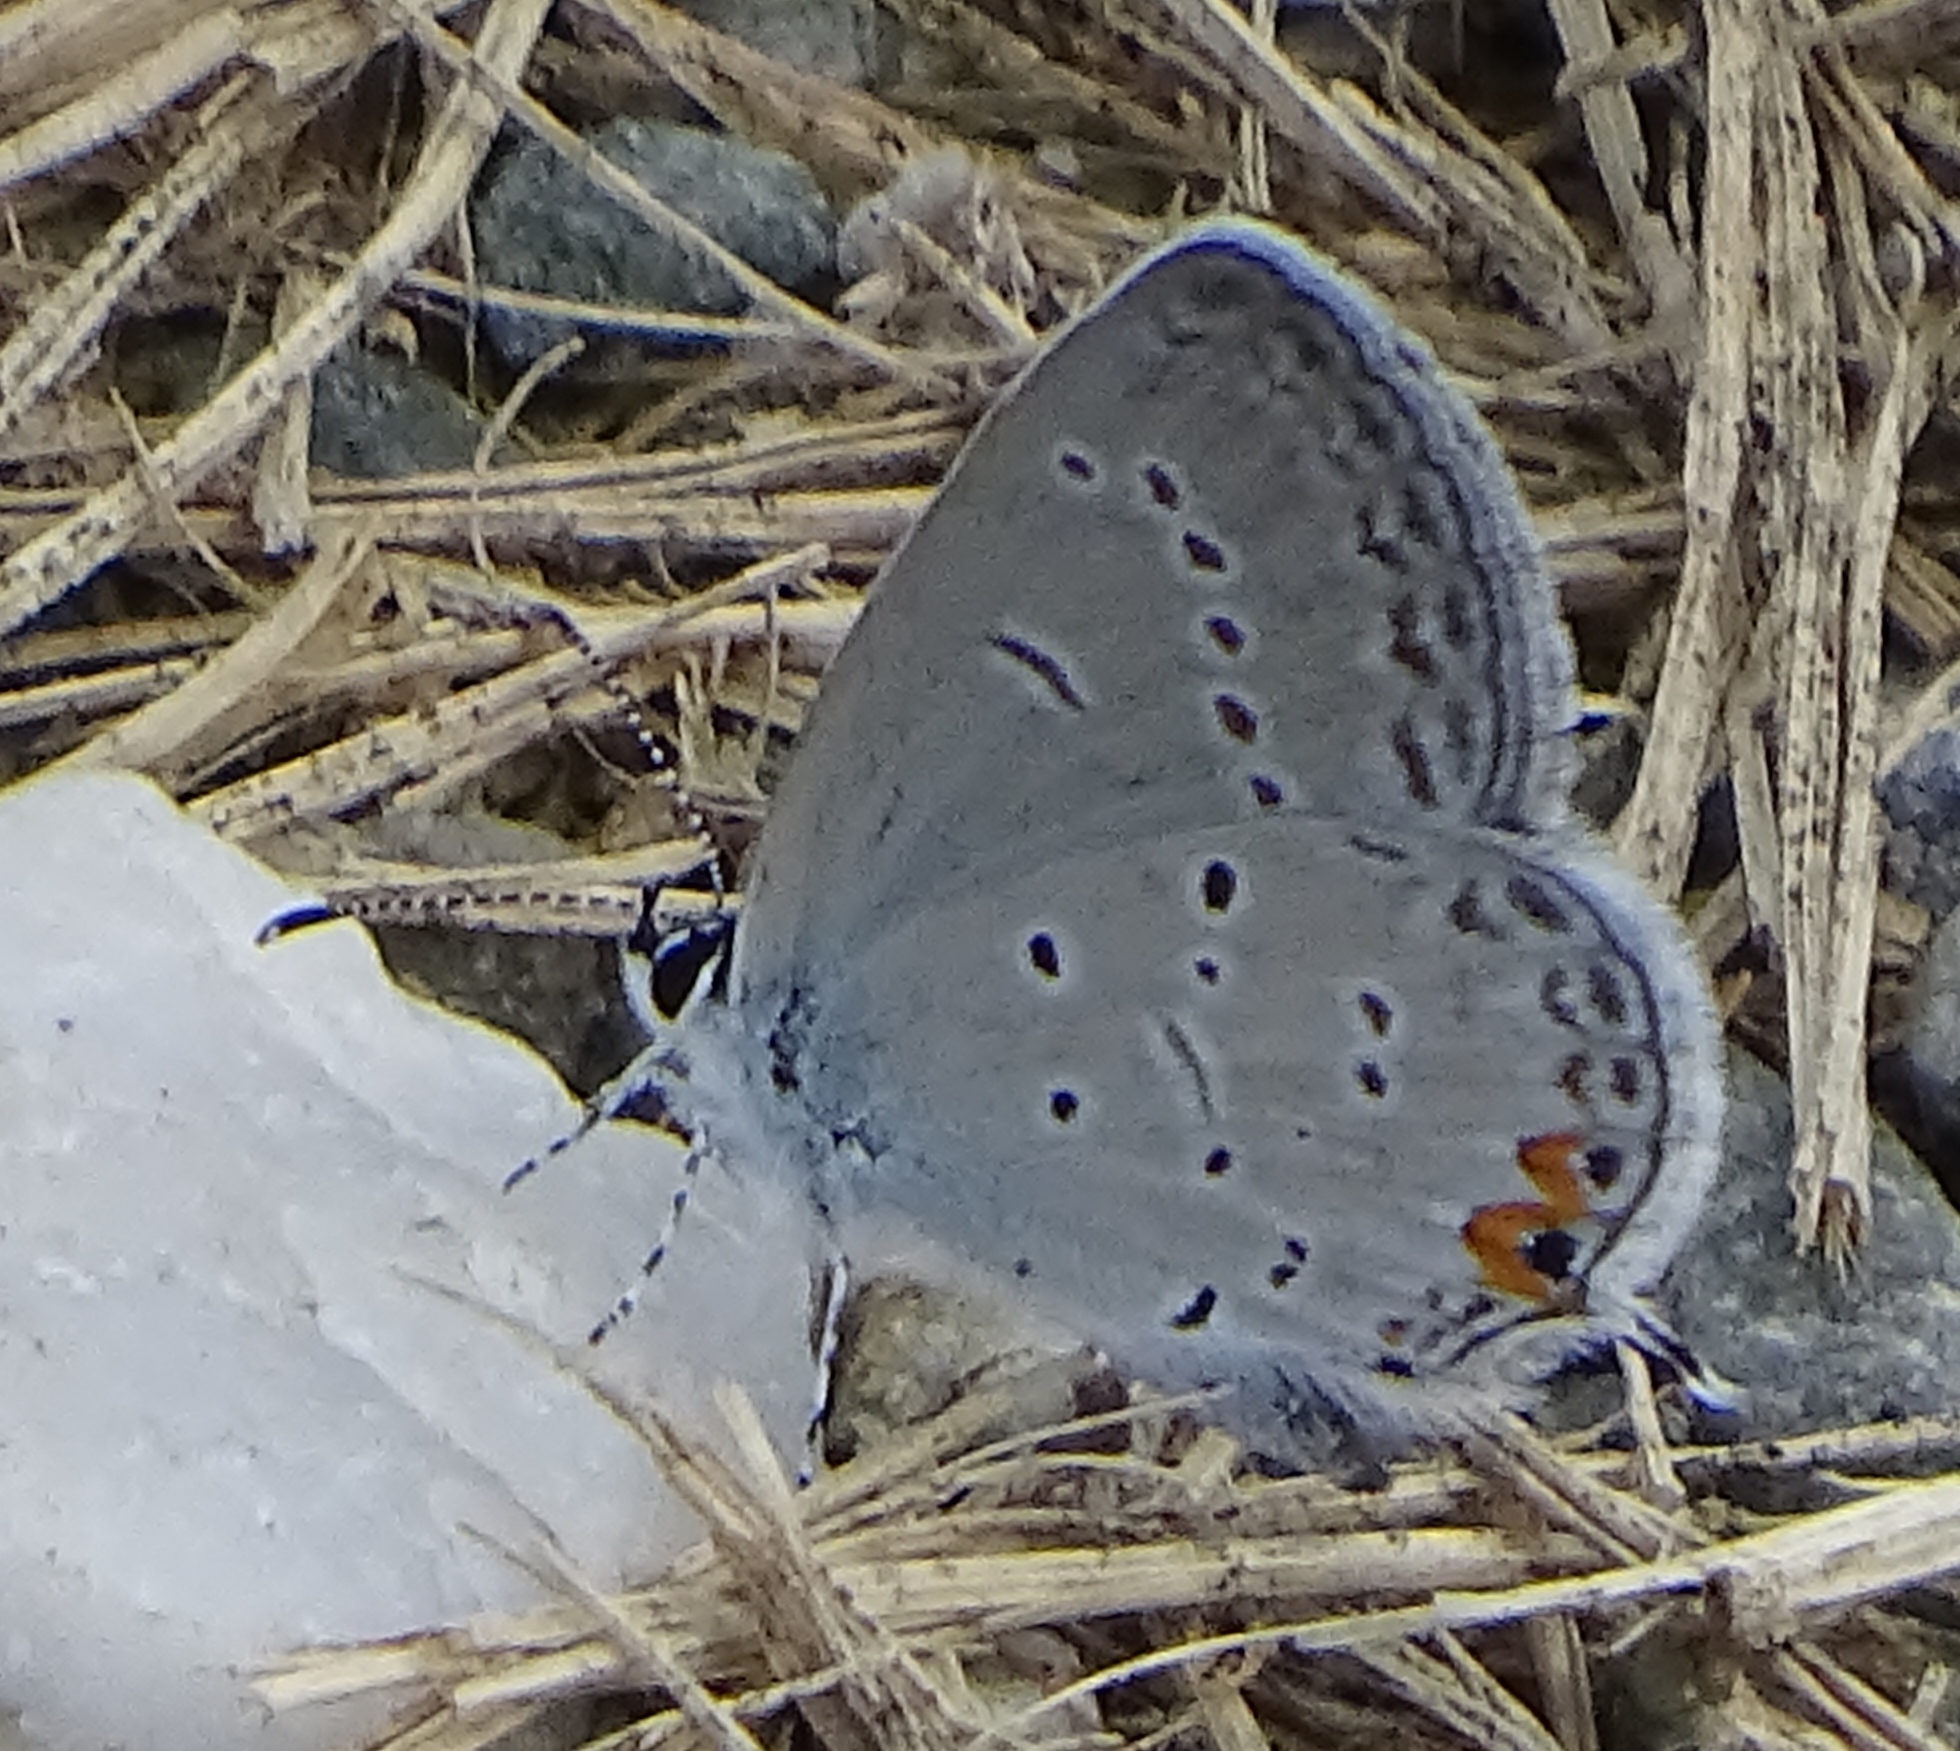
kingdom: Animalia
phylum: Arthropoda
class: Insecta
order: Lepidoptera
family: Lycaenidae
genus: Elkalyce
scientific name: Elkalyce comyntas
